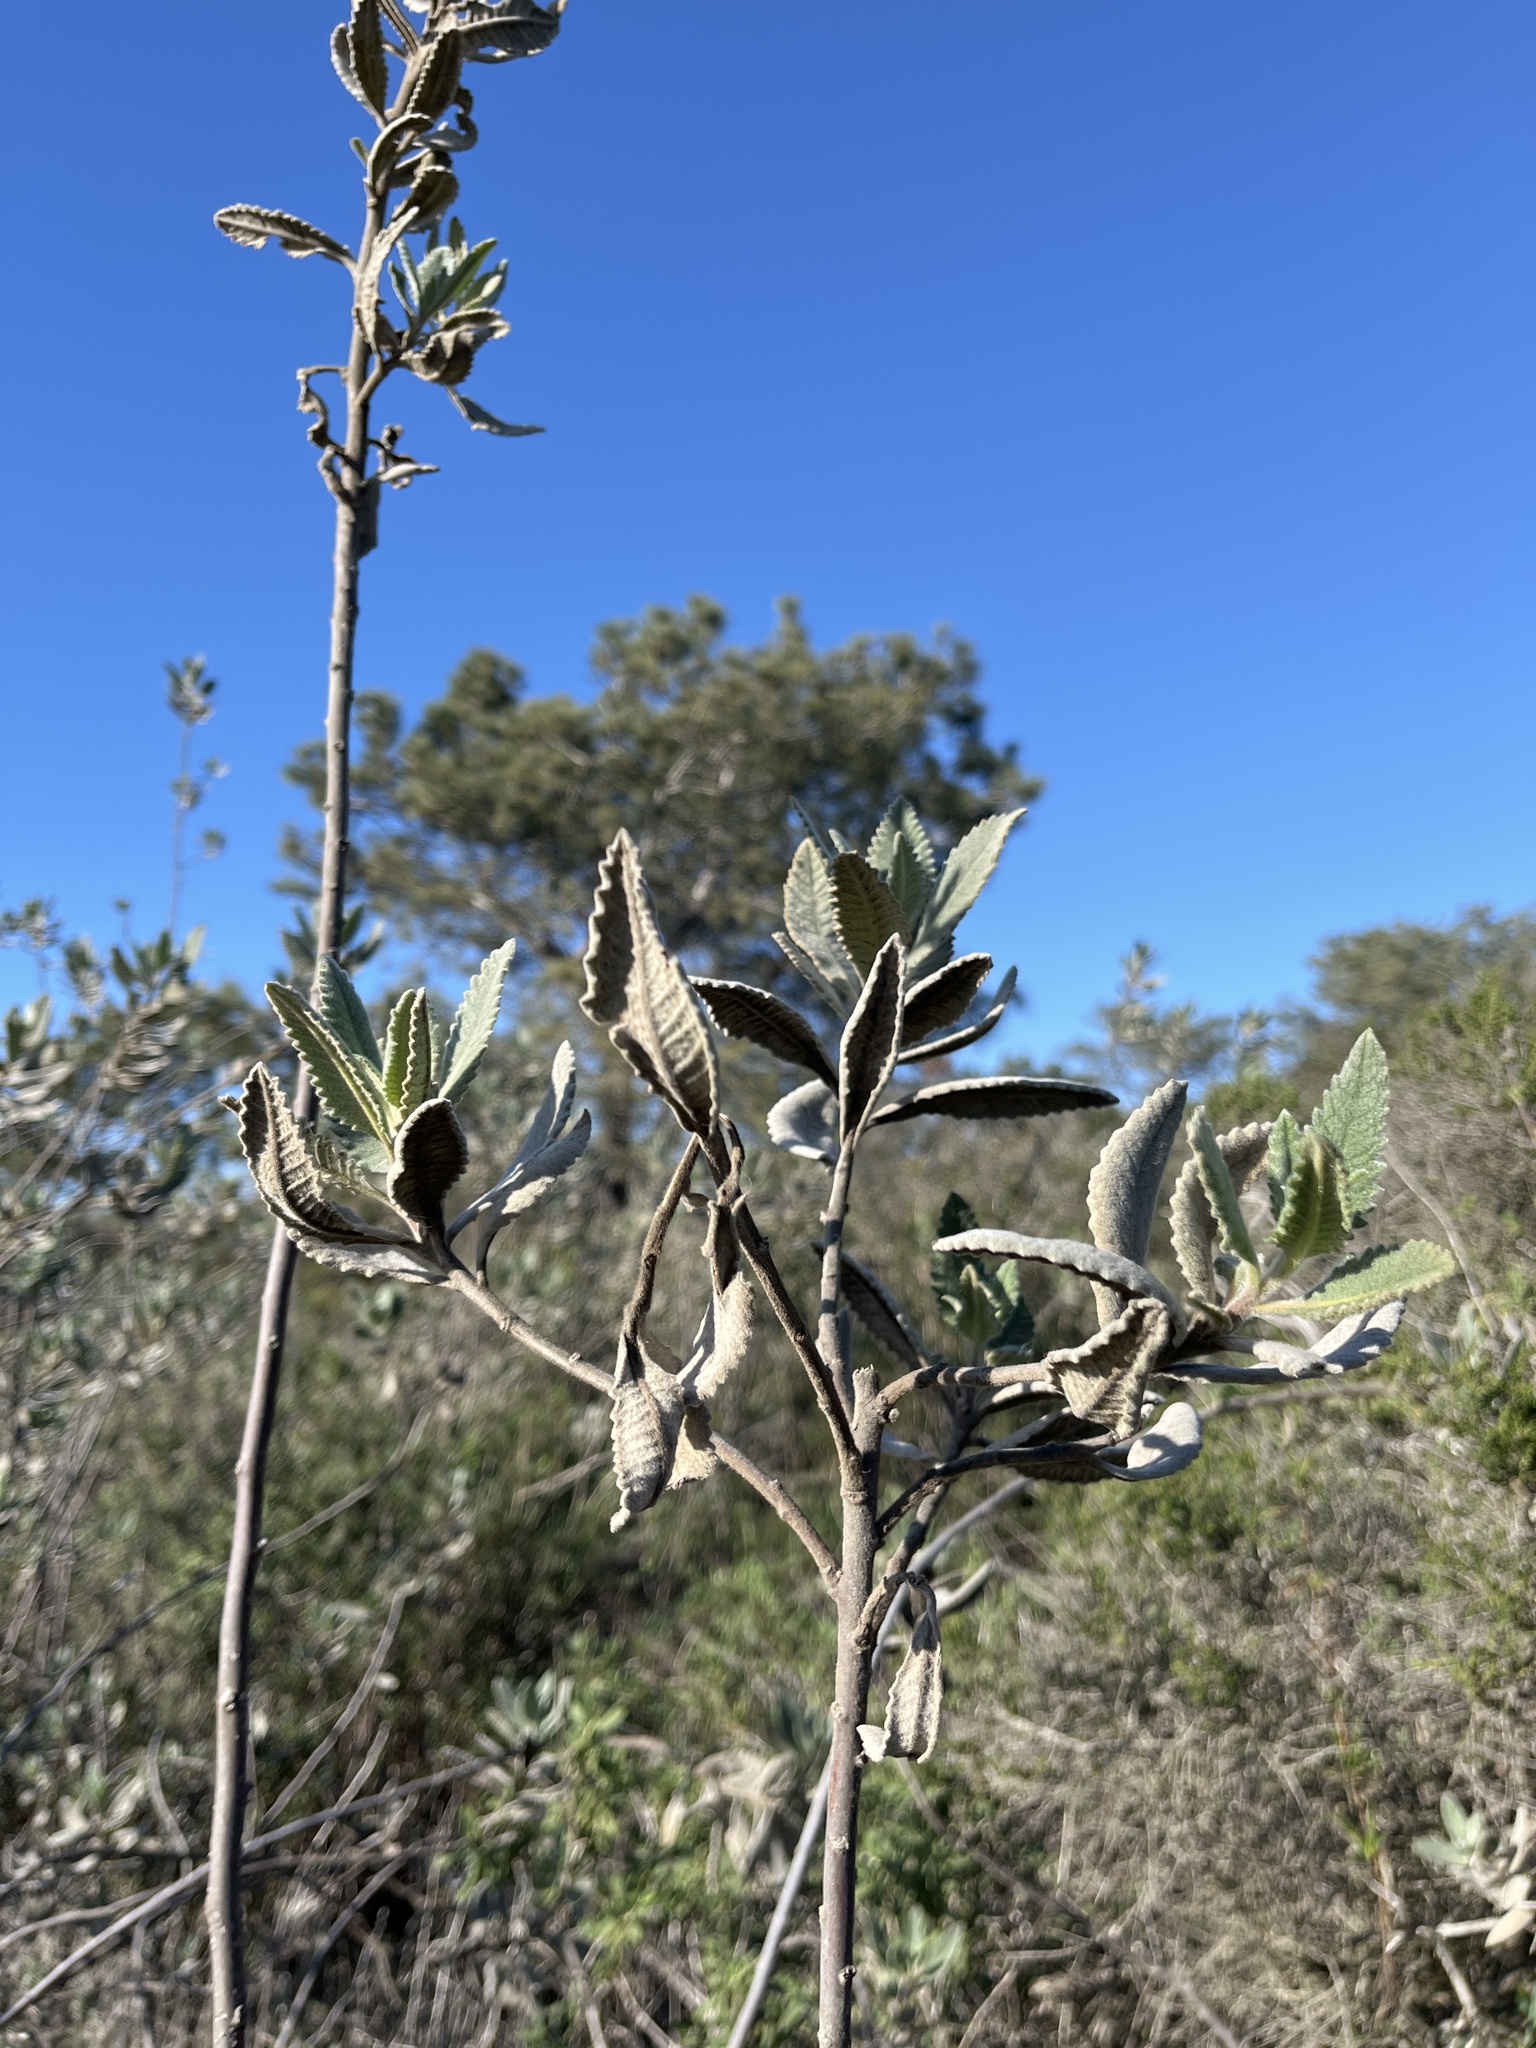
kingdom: Plantae
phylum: Tracheophyta
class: Magnoliopsida
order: Boraginales
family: Namaceae
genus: Eriodictyon
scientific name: Eriodictyon crassifolium
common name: Thick-leaf yerba-santa
